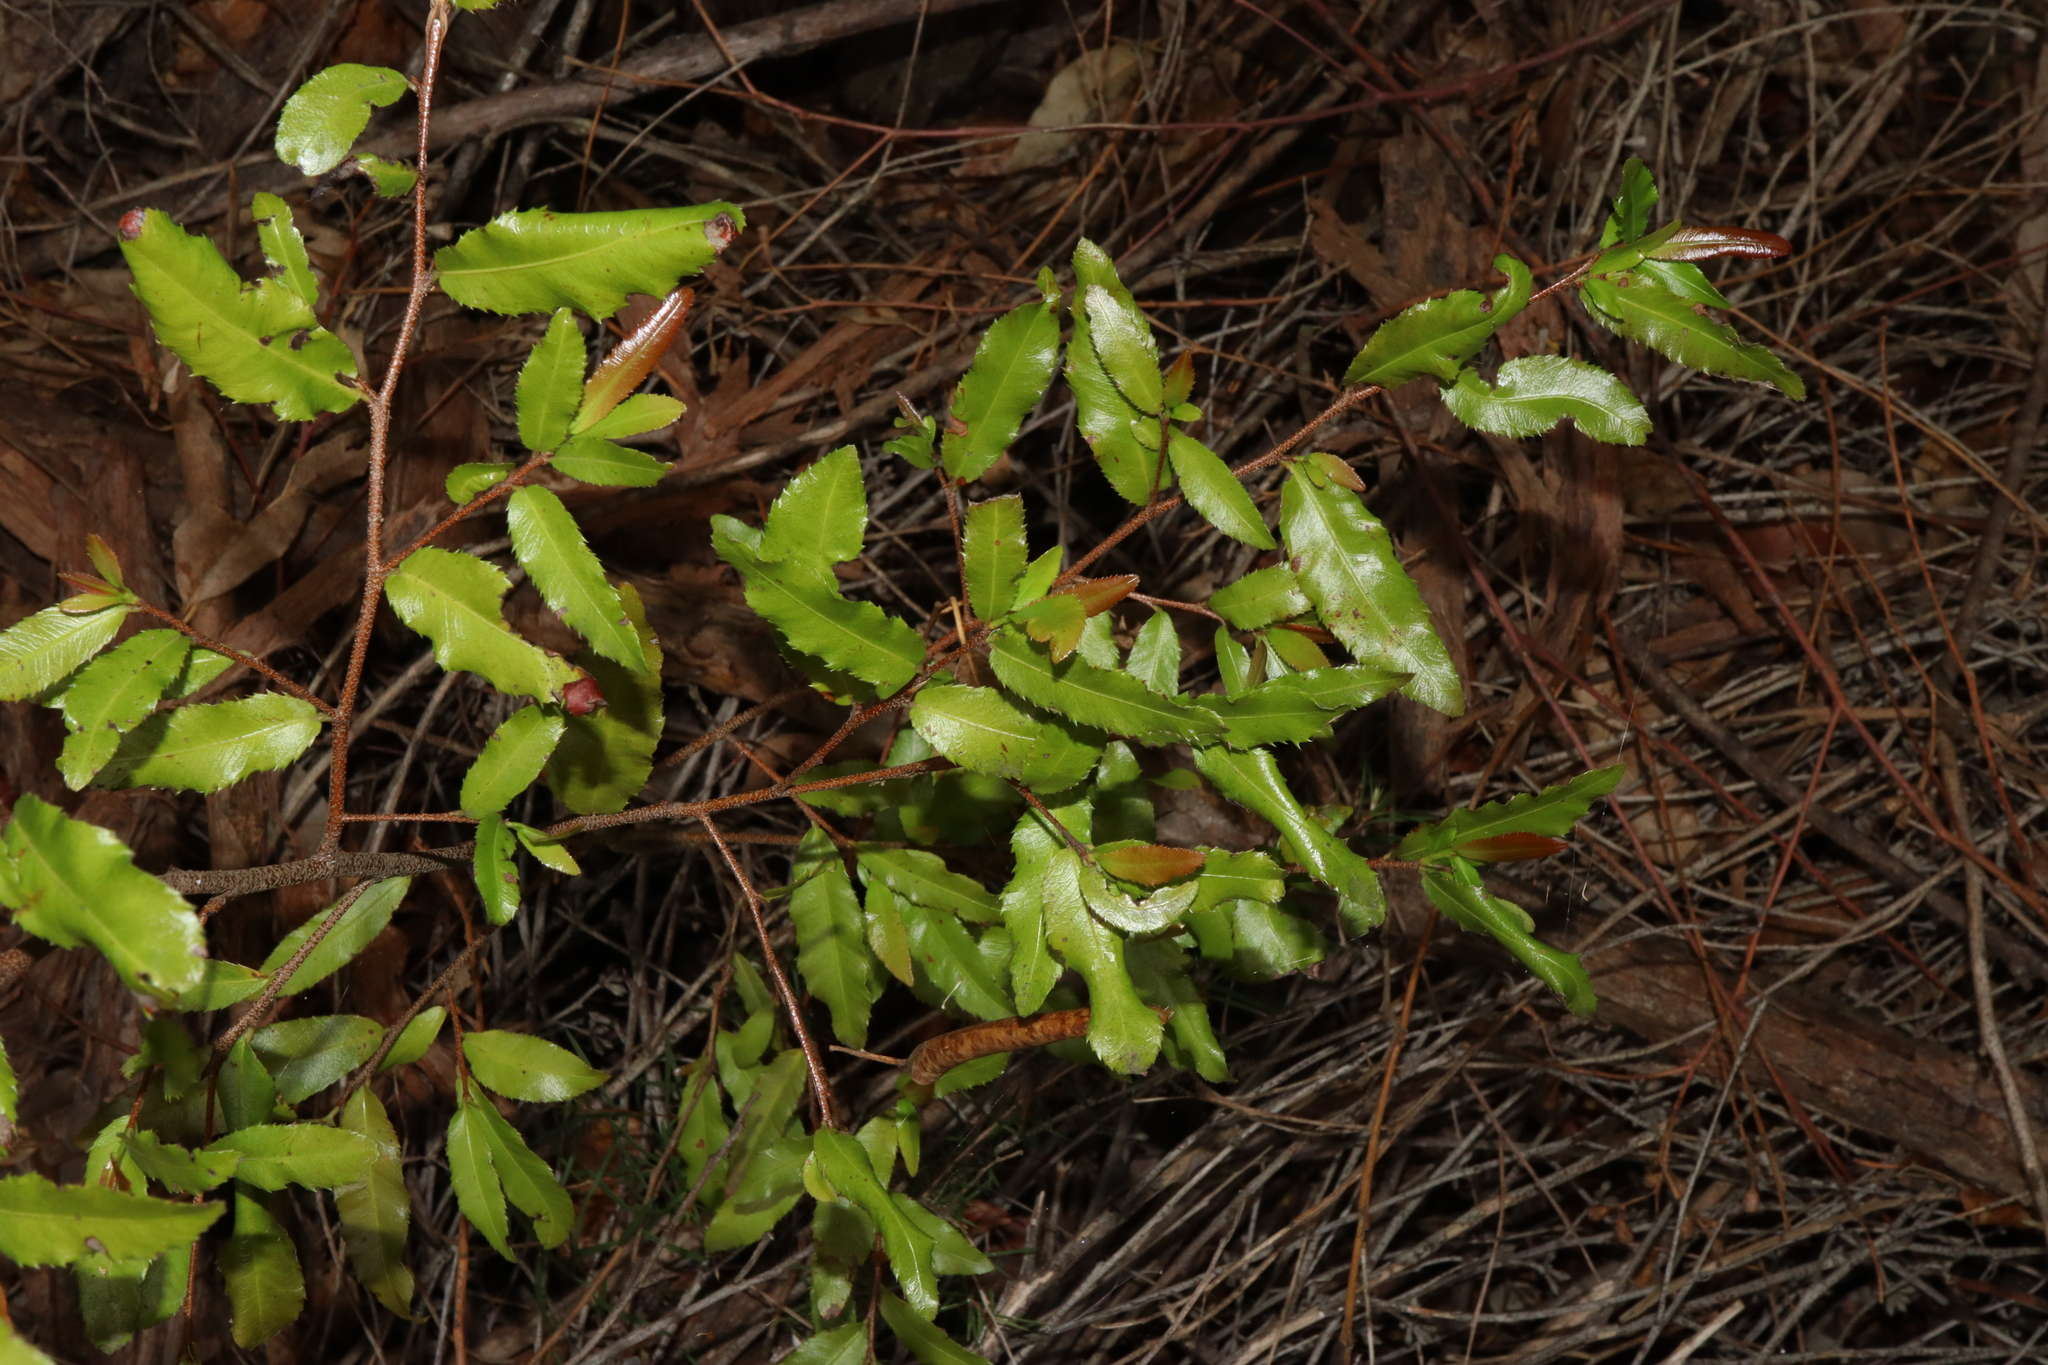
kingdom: Plantae
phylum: Tracheophyta
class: Magnoliopsida
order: Malpighiales
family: Ochnaceae
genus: Ochna
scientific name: Ochna serrulata
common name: Mickey mouse plant
